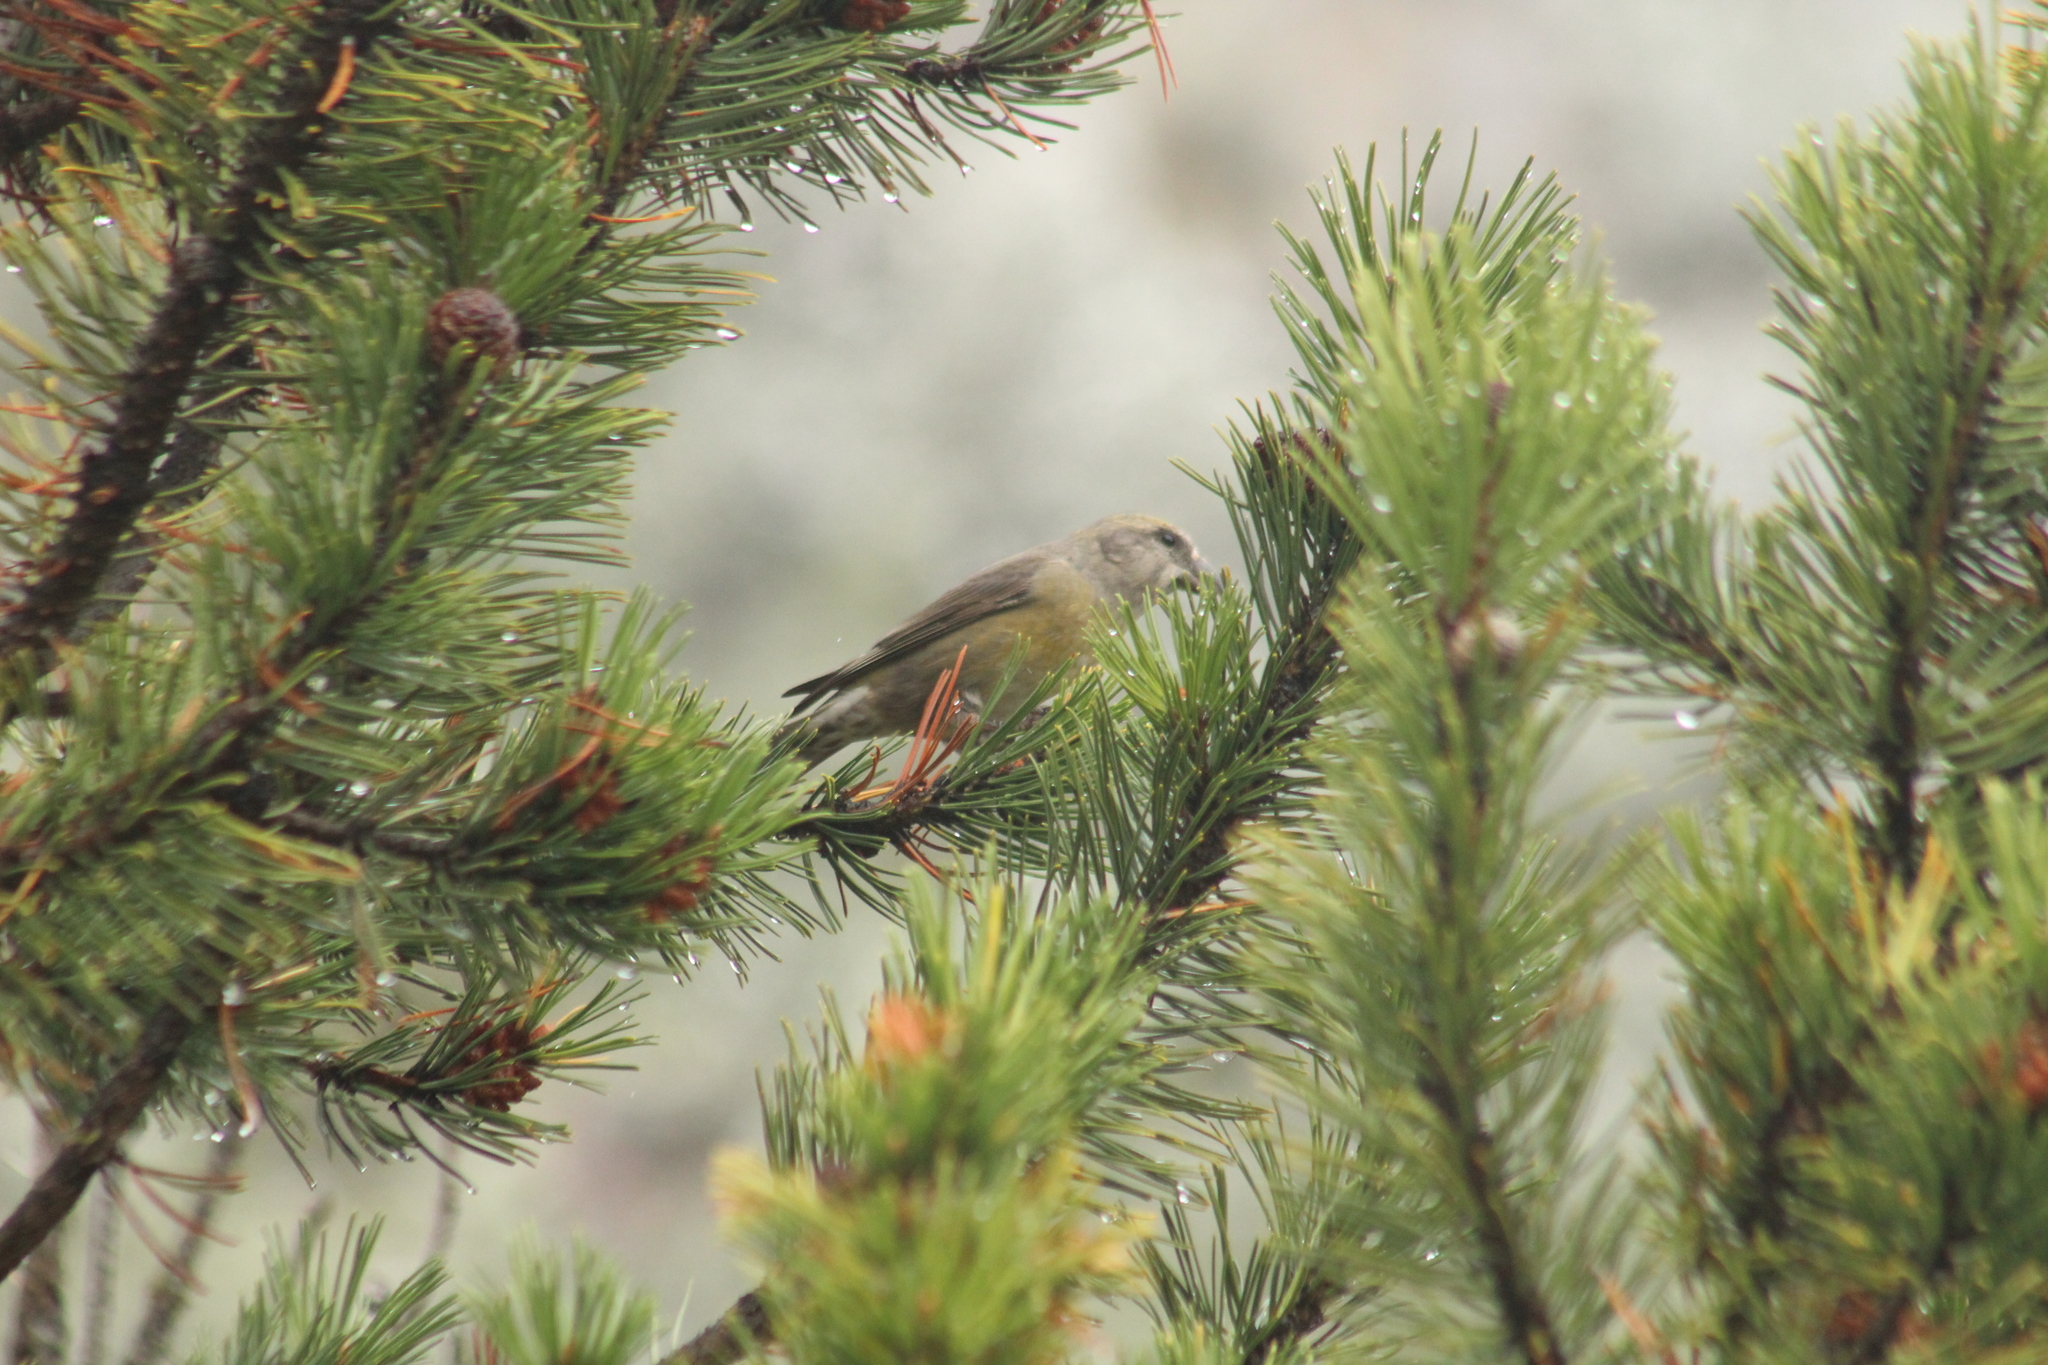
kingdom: Animalia
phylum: Chordata
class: Aves
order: Passeriformes
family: Fringillidae
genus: Loxia
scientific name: Loxia curvirostra
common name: Red crossbill
